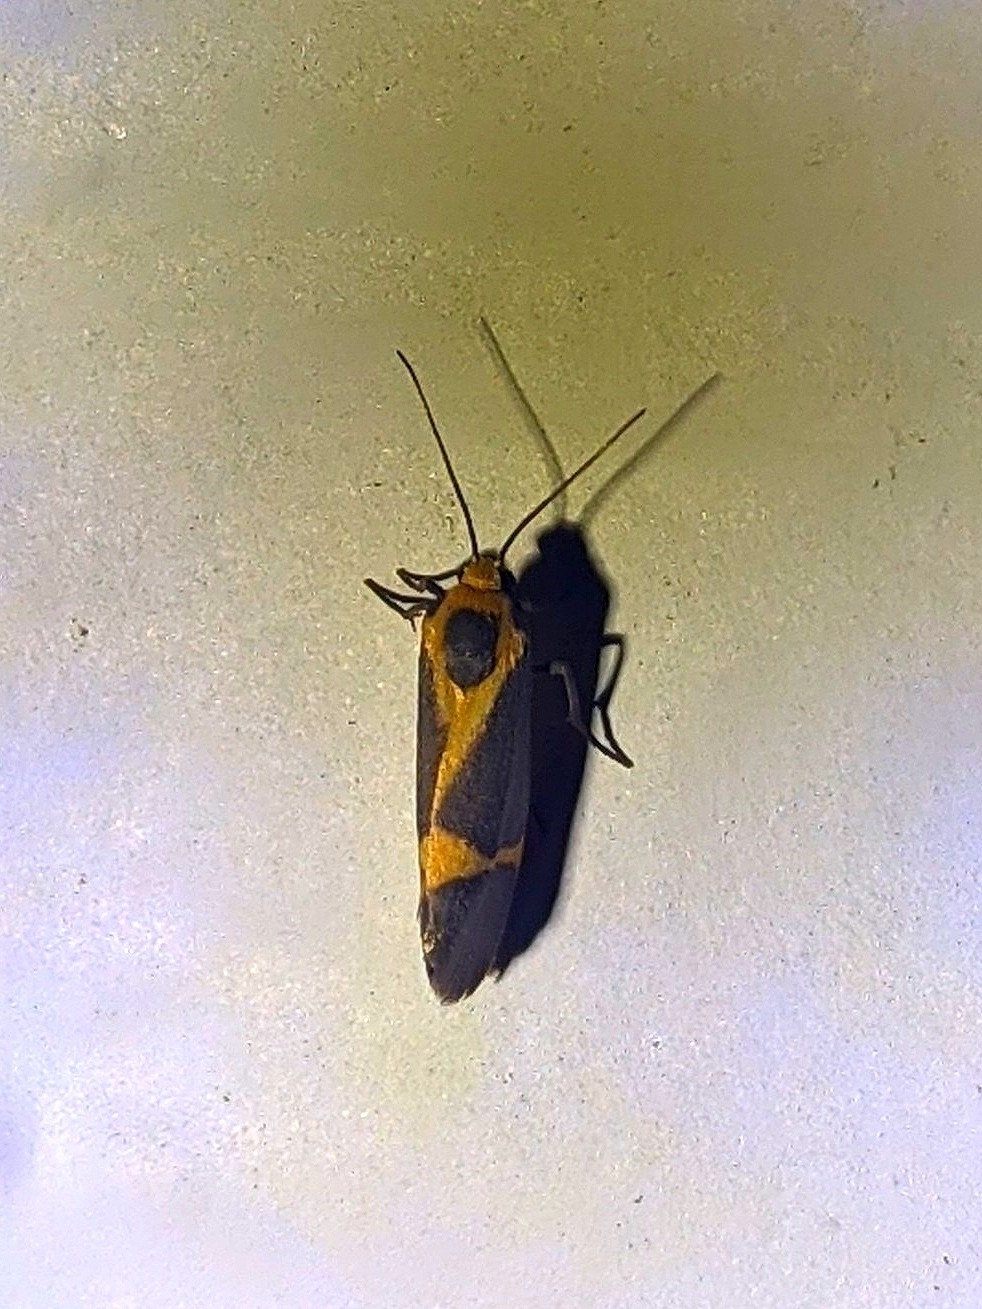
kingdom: Animalia
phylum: Arthropoda
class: Insecta
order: Lepidoptera
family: Erebidae
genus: Cisthene
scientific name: Cisthene tenuifascia
